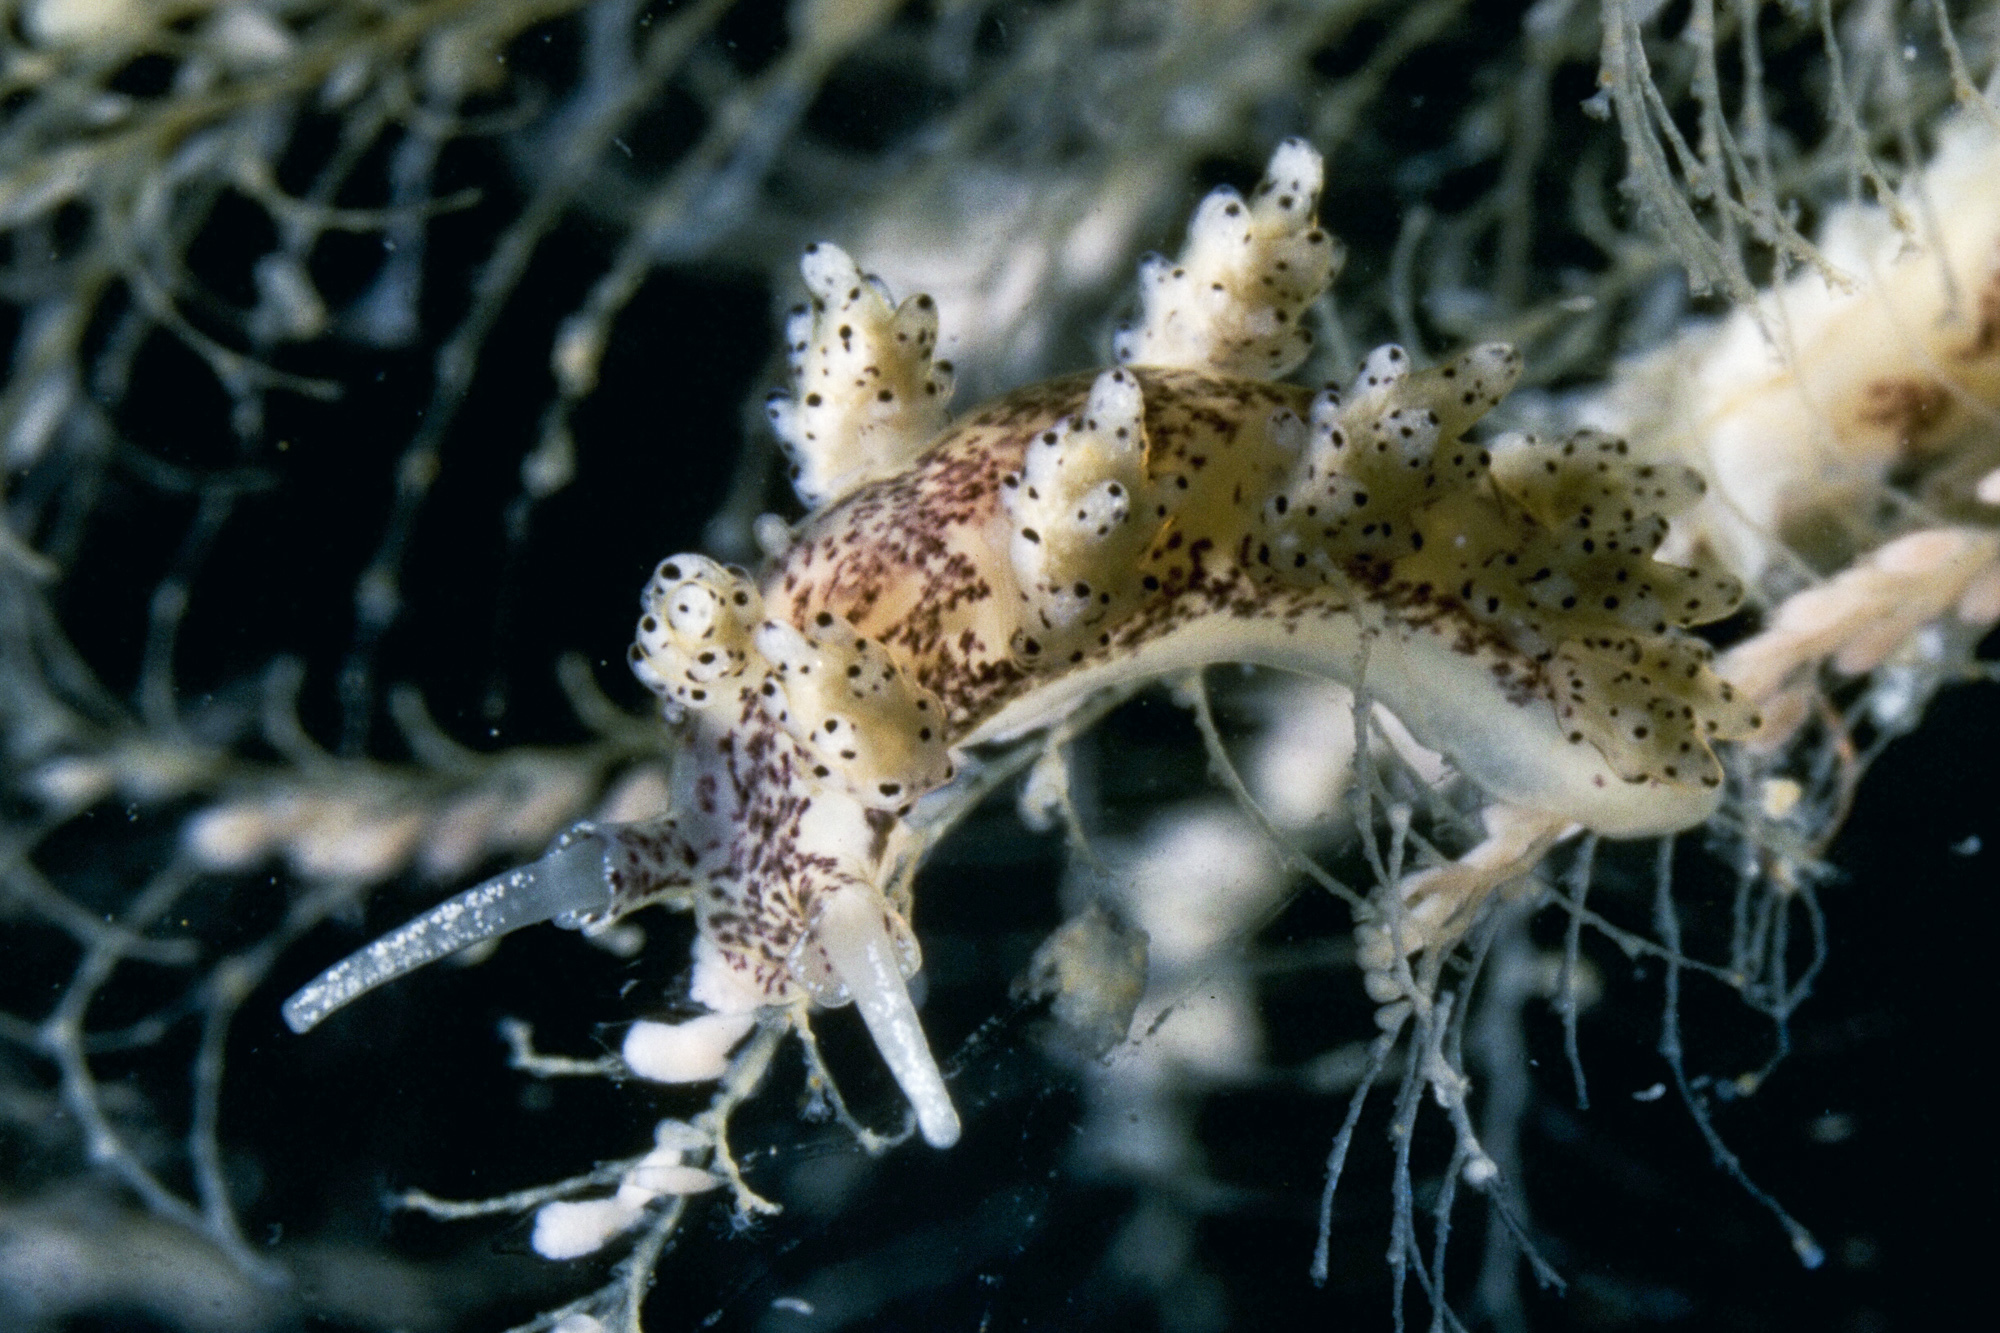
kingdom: Animalia
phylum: Mollusca
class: Gastropoda
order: Nudibranchia
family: Dotidae
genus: Doto
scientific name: Doto millbayana
